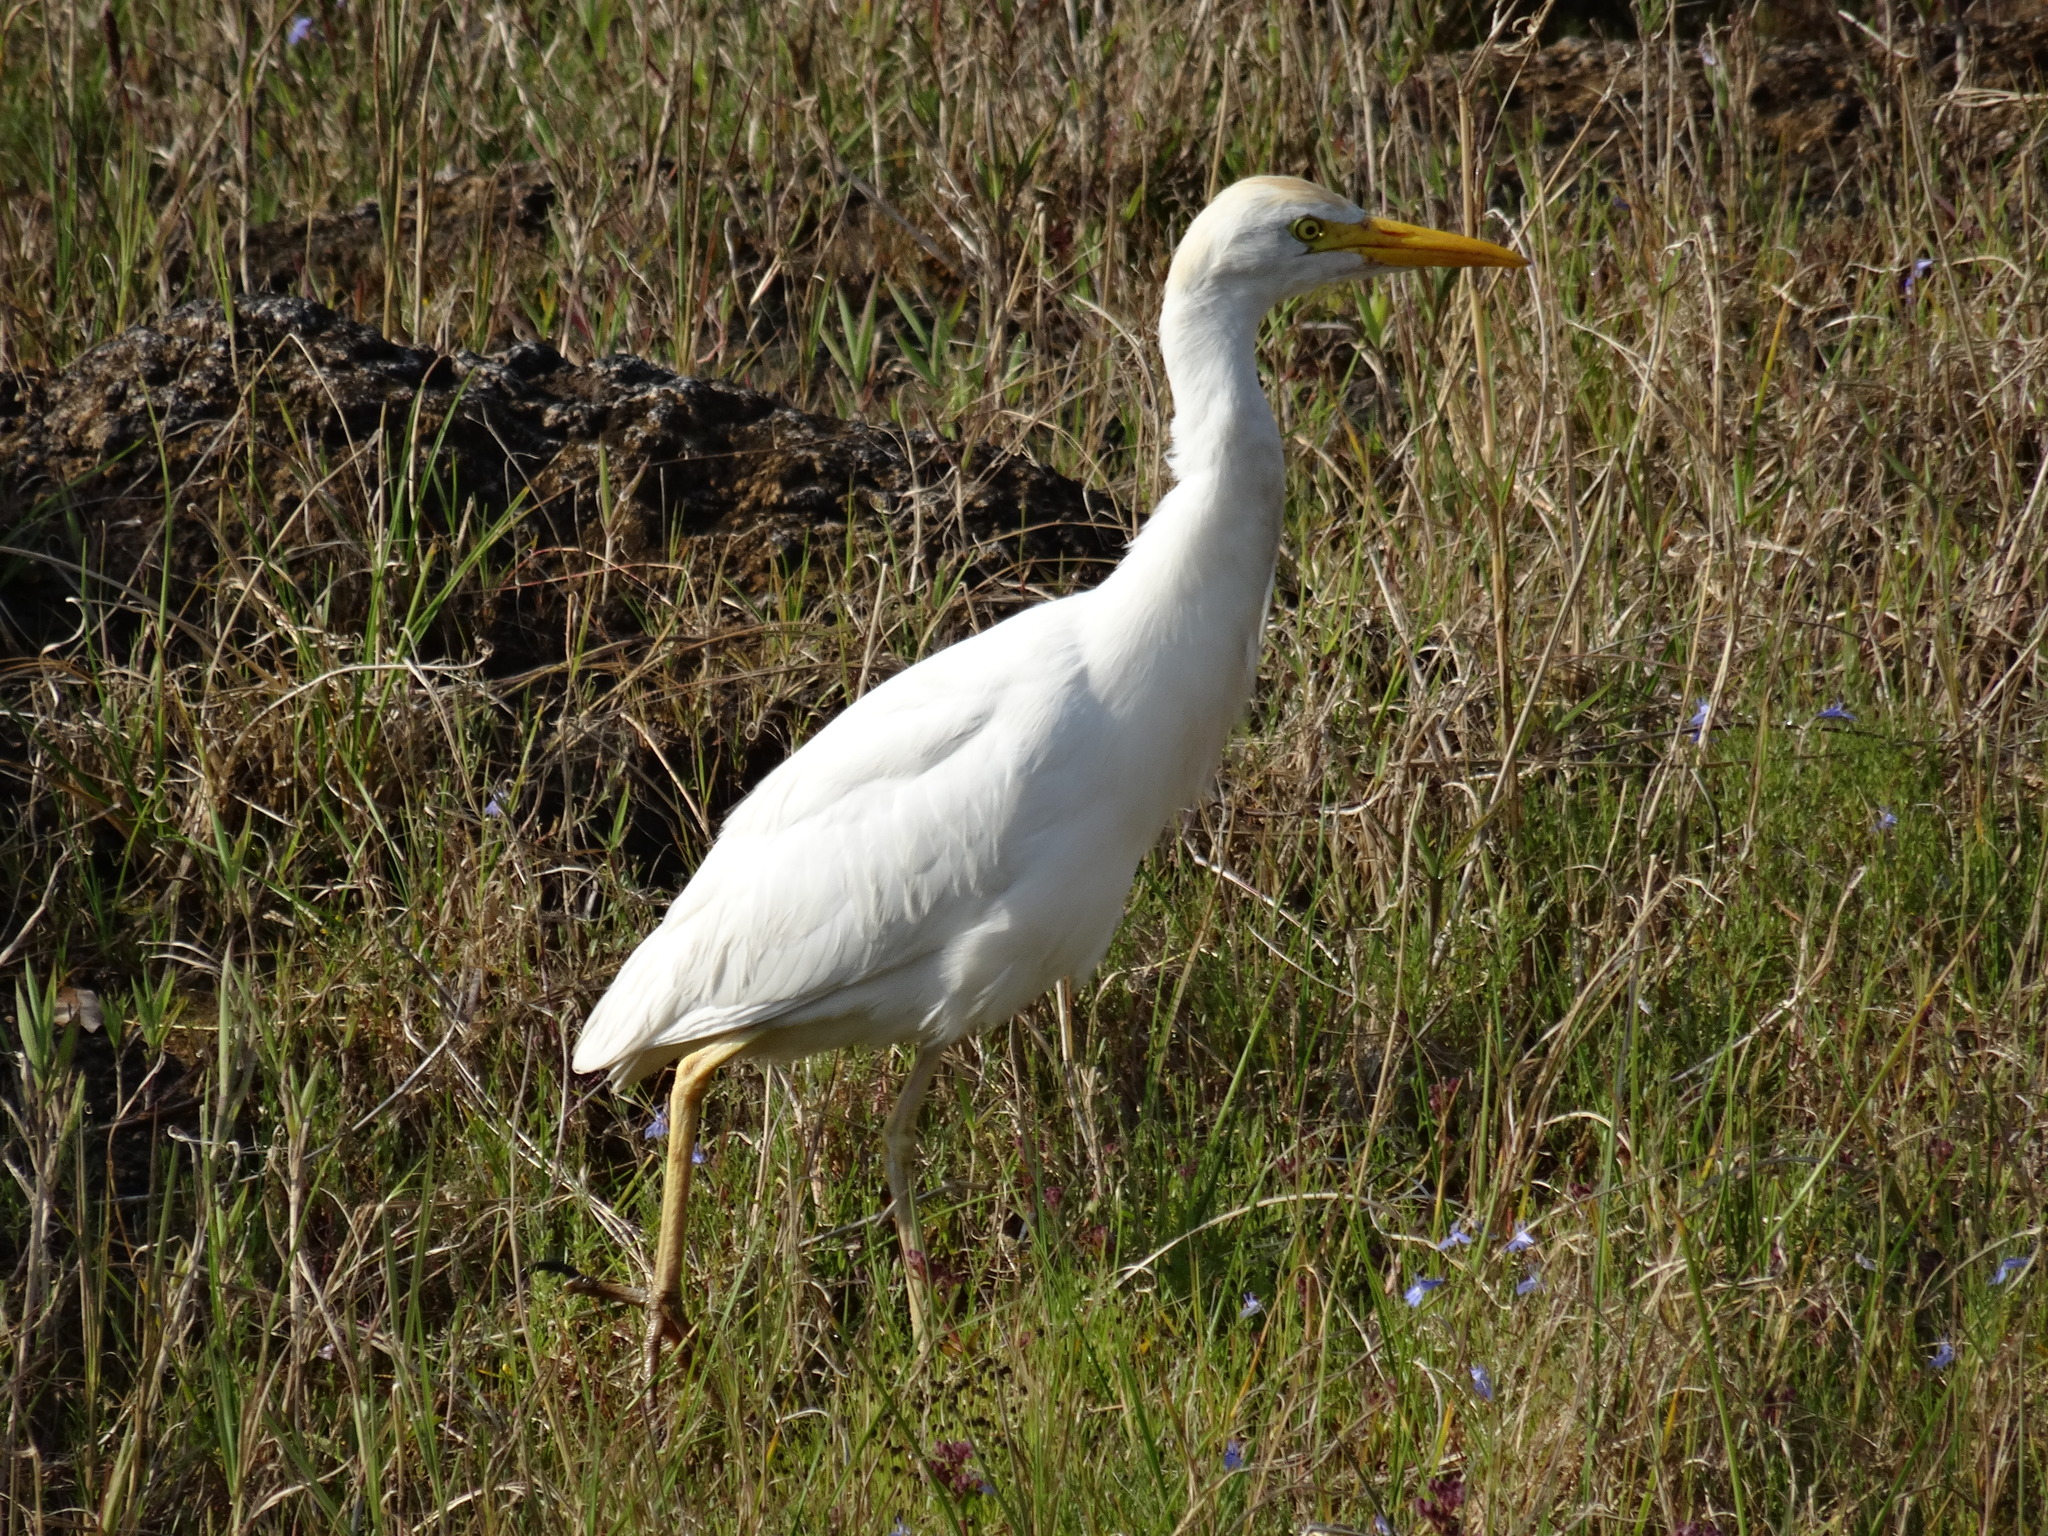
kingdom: Animalia
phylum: Chordata
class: Aves
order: Pelecaniformes
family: Ardeidae
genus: Bubulcus
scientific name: Bubulcus ibis
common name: Cattle egret
